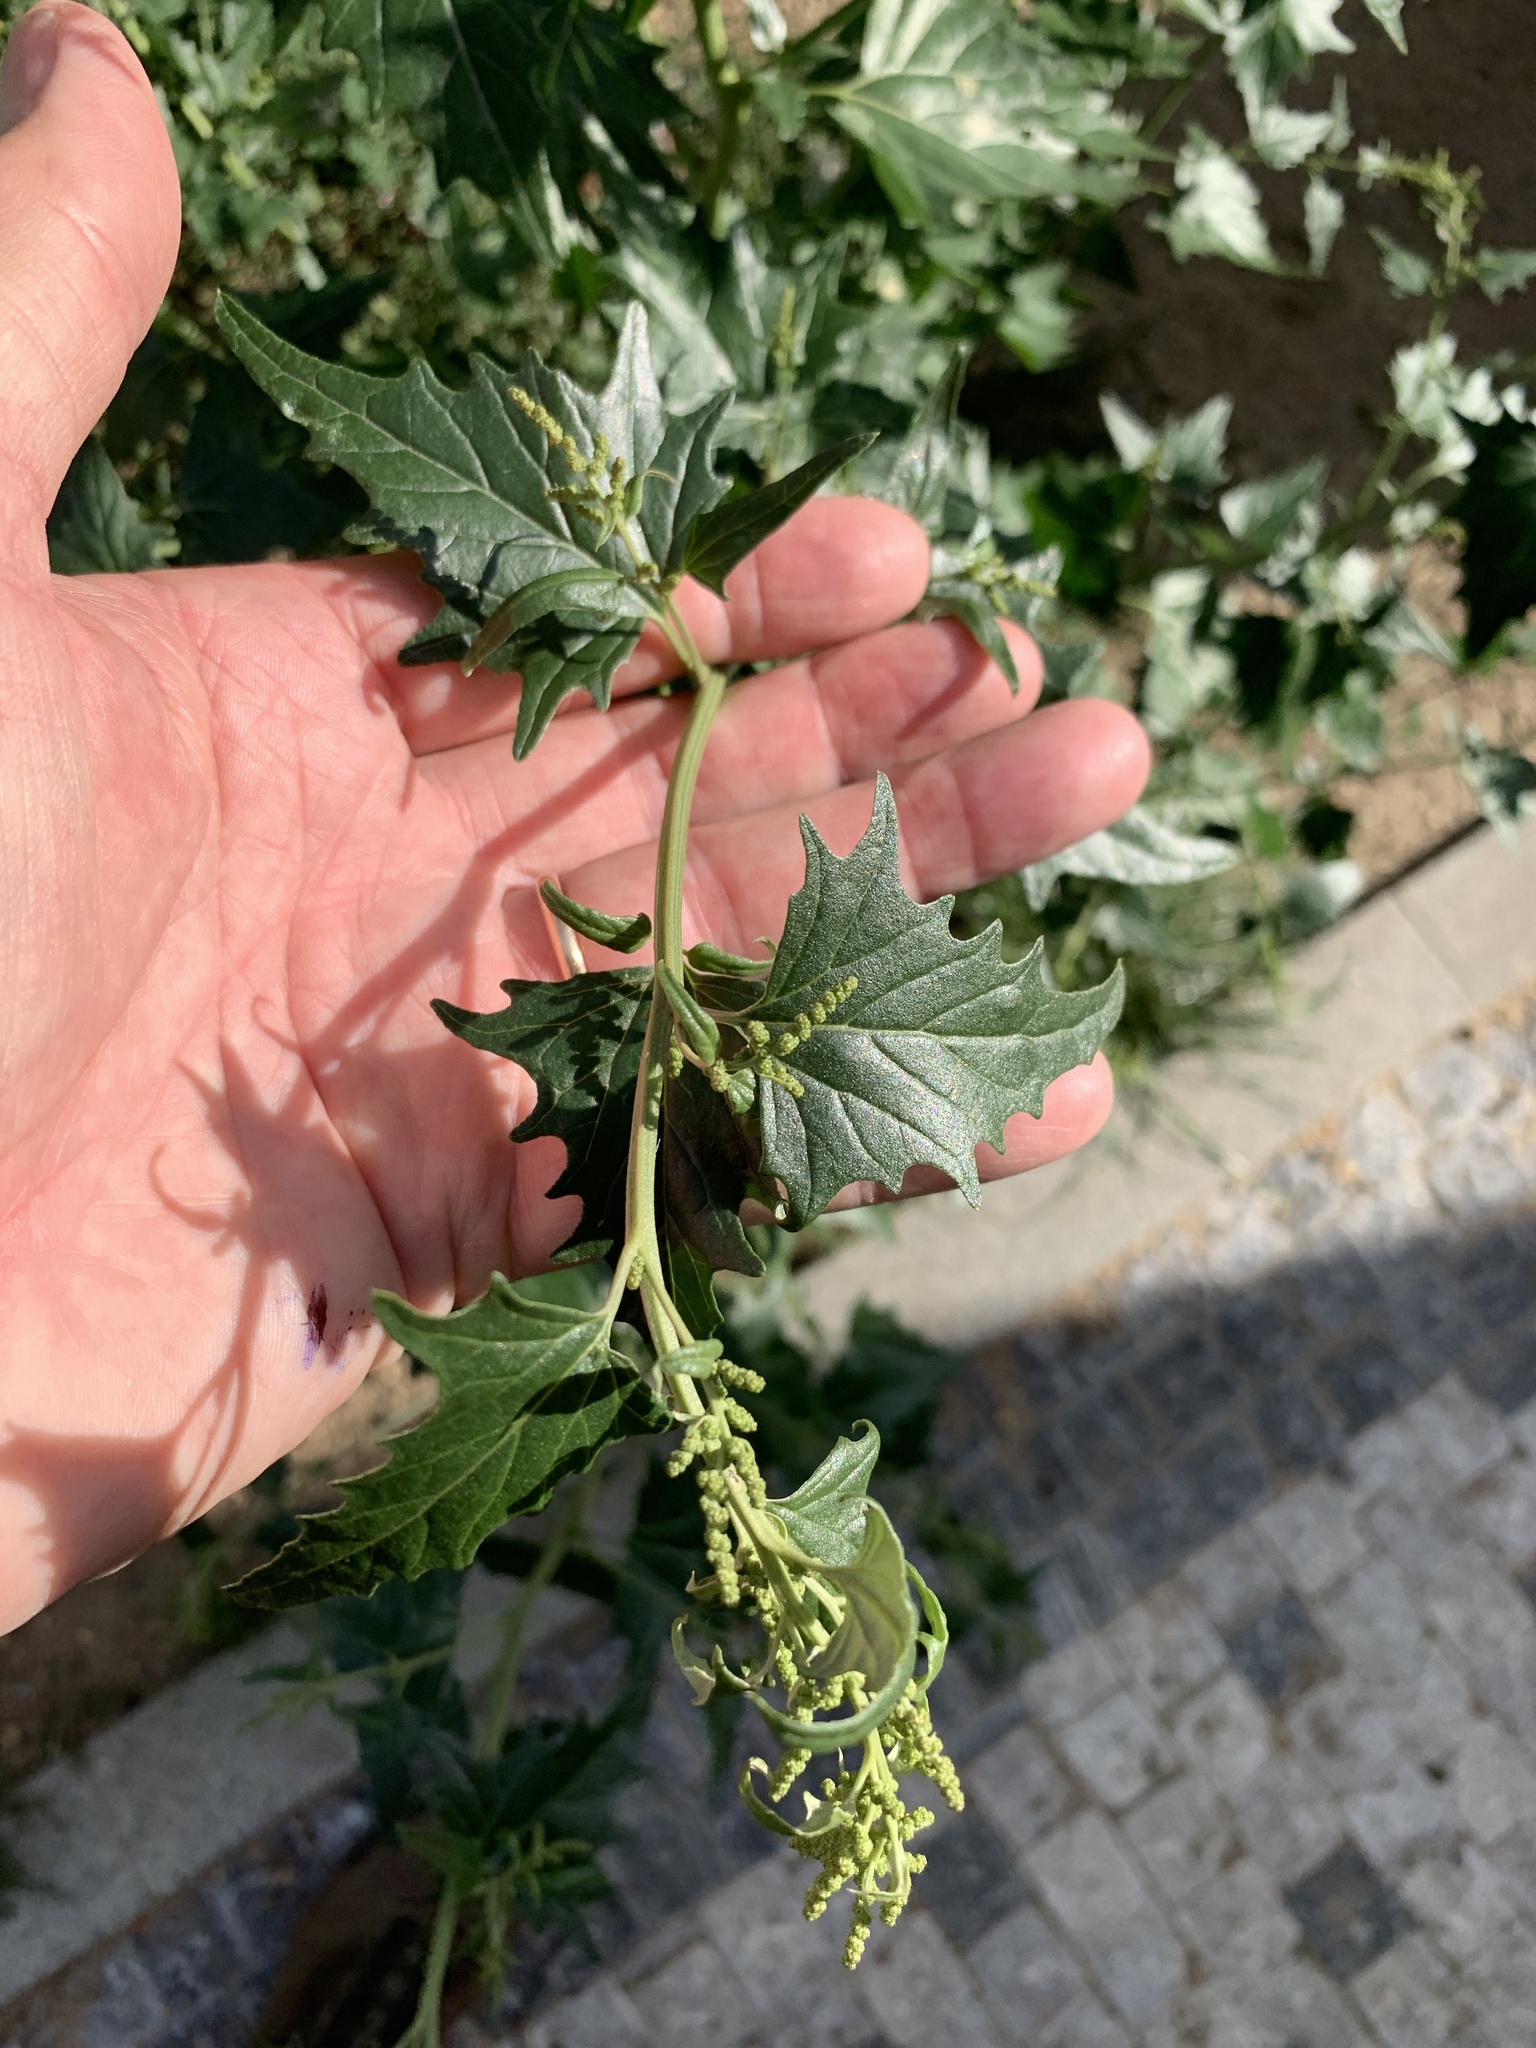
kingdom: Plantae
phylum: Tracheophyta
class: Magnoliopsida
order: Caryophyllales
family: Amaranthaceae
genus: Atriplex
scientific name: Atriplex sagittata
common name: Purple orache
